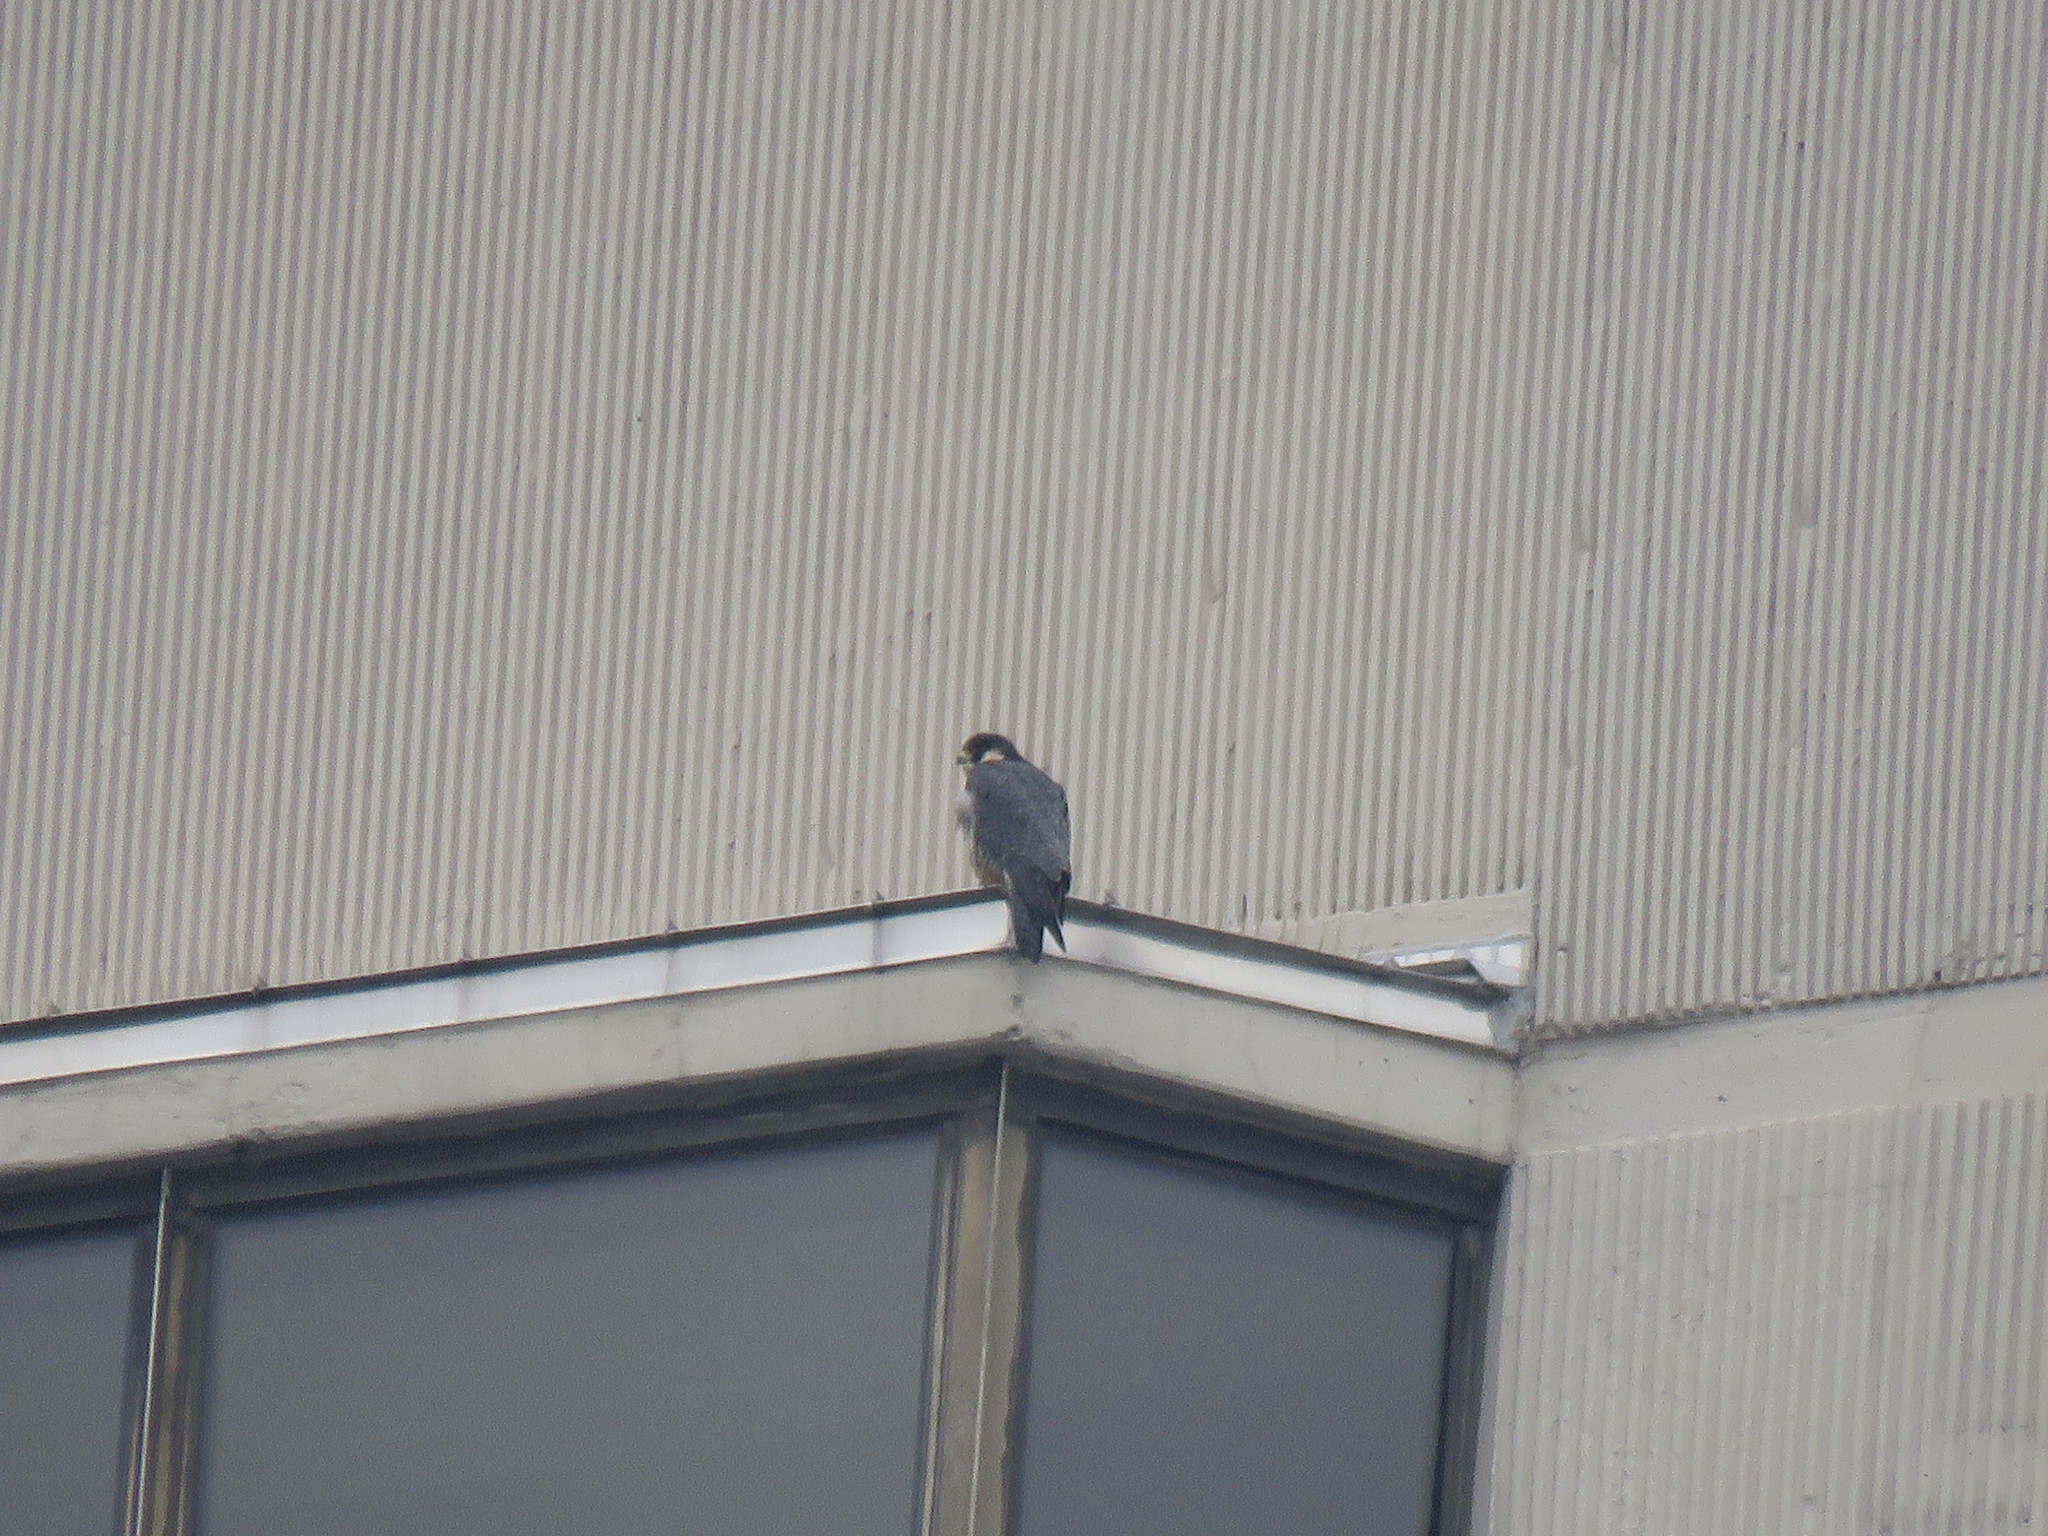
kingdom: Animalia
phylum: Chordata
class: Aves
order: Falconiformes
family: Falconidae
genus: Falco
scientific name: Falco peregrinus
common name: Peregrine falcon
